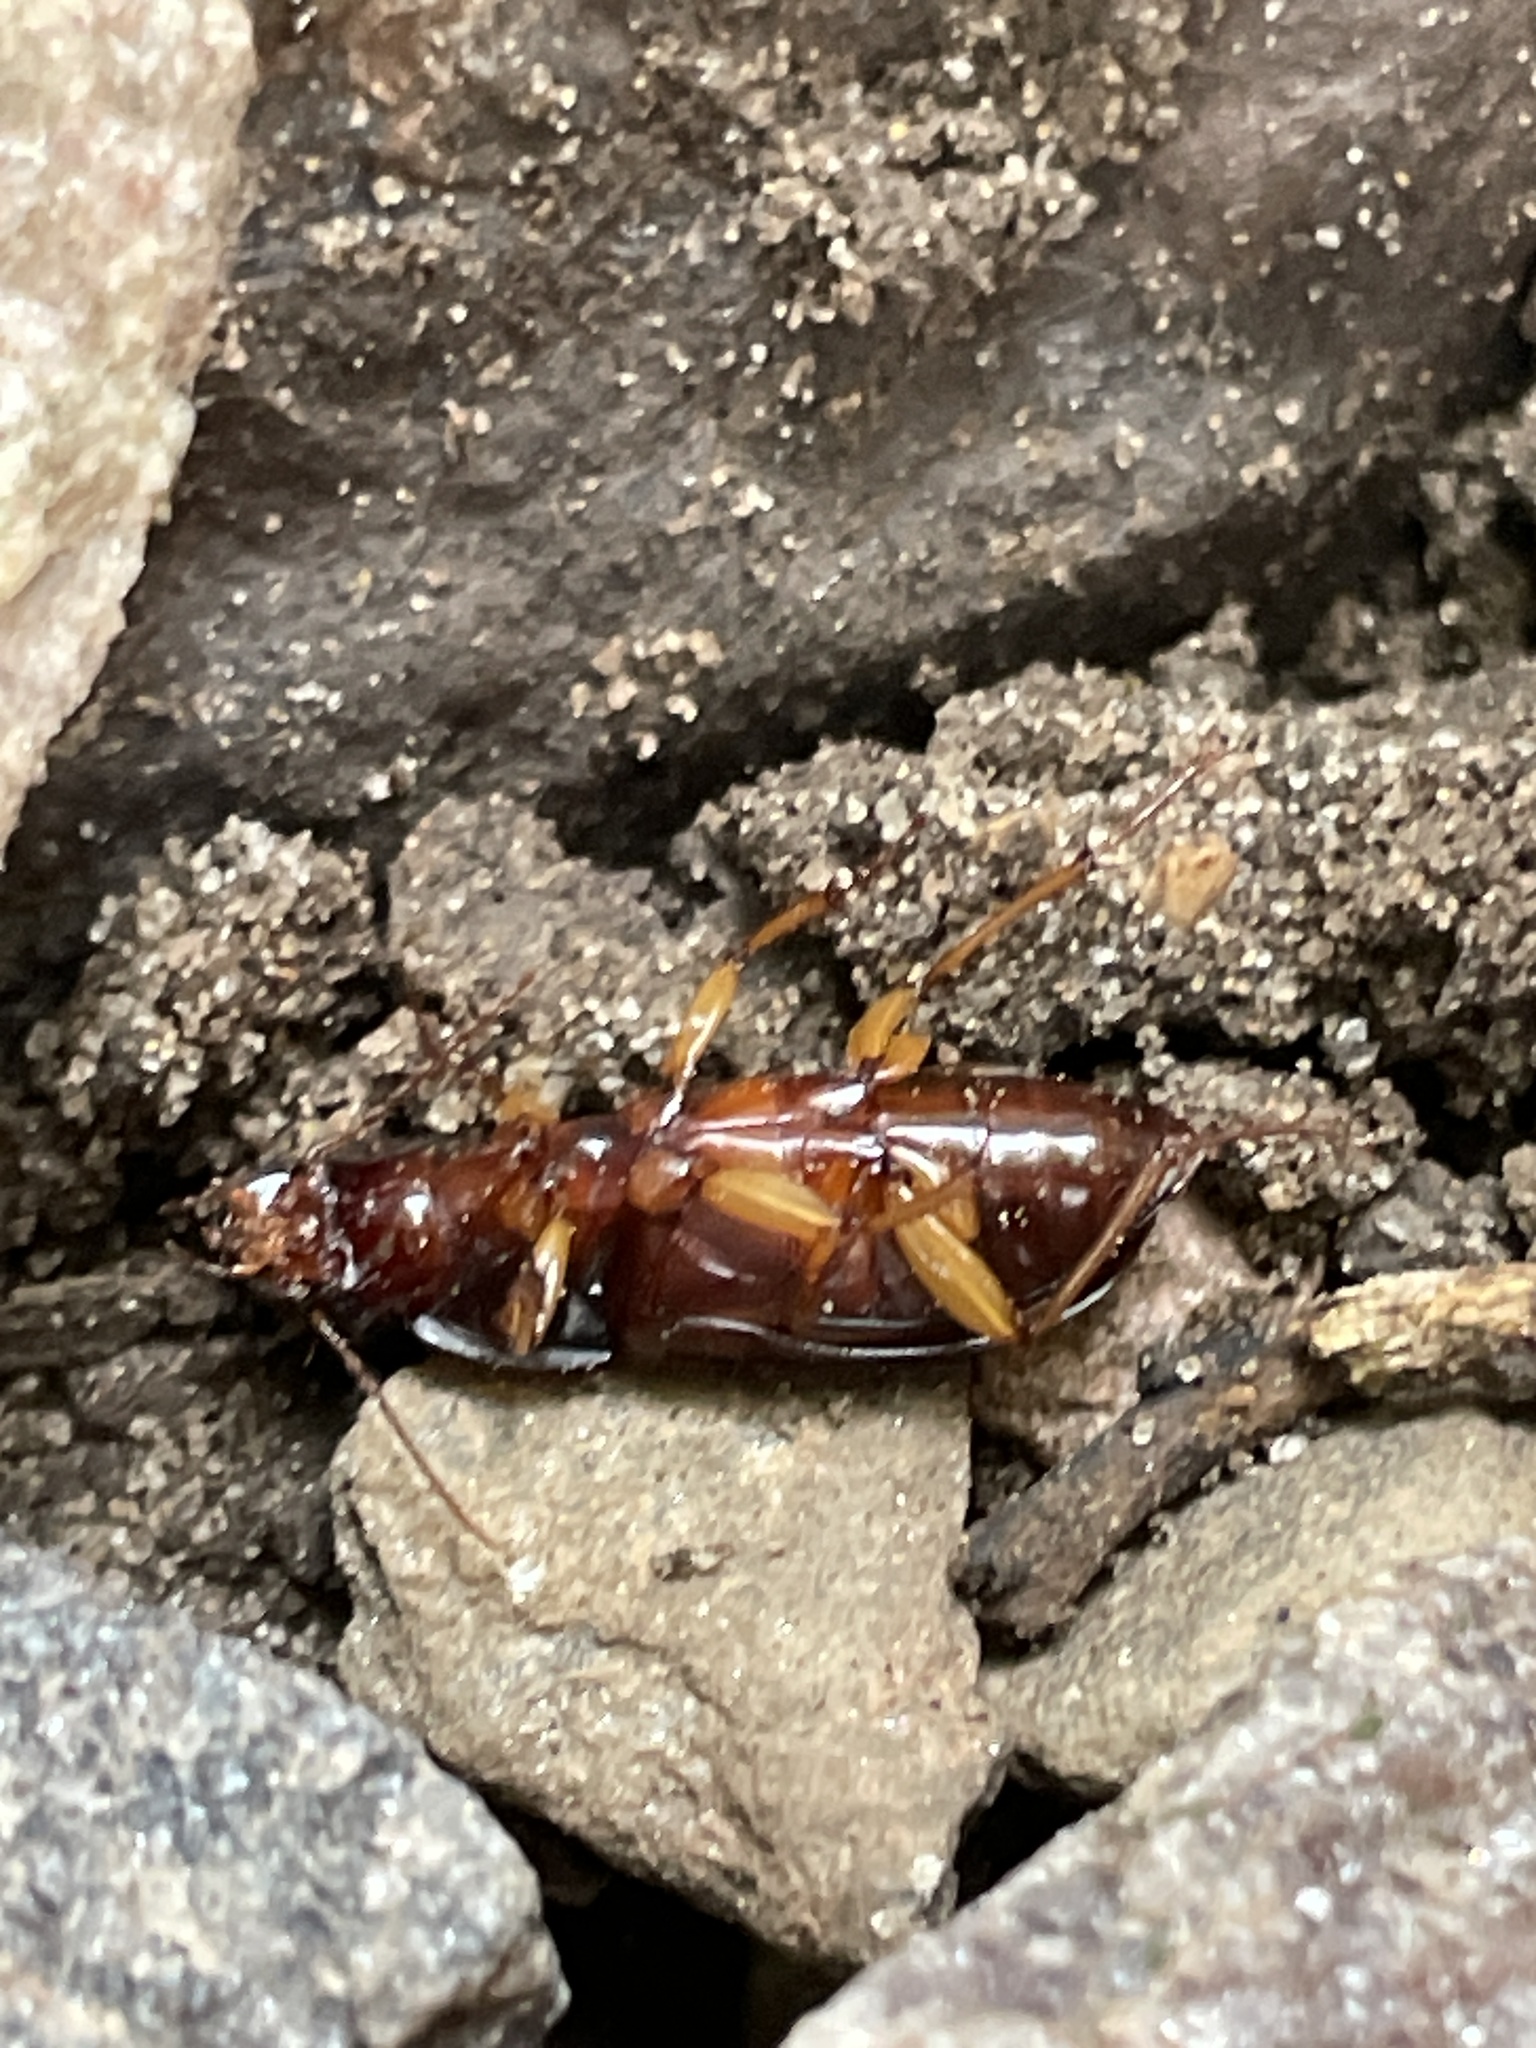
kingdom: Animalia
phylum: Arthropoda
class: Insecta
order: Coleoptera
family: Carabidae
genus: Harpalus
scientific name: Harpalus pensylvanicus
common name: Pennsylvania dingy ground beetle
